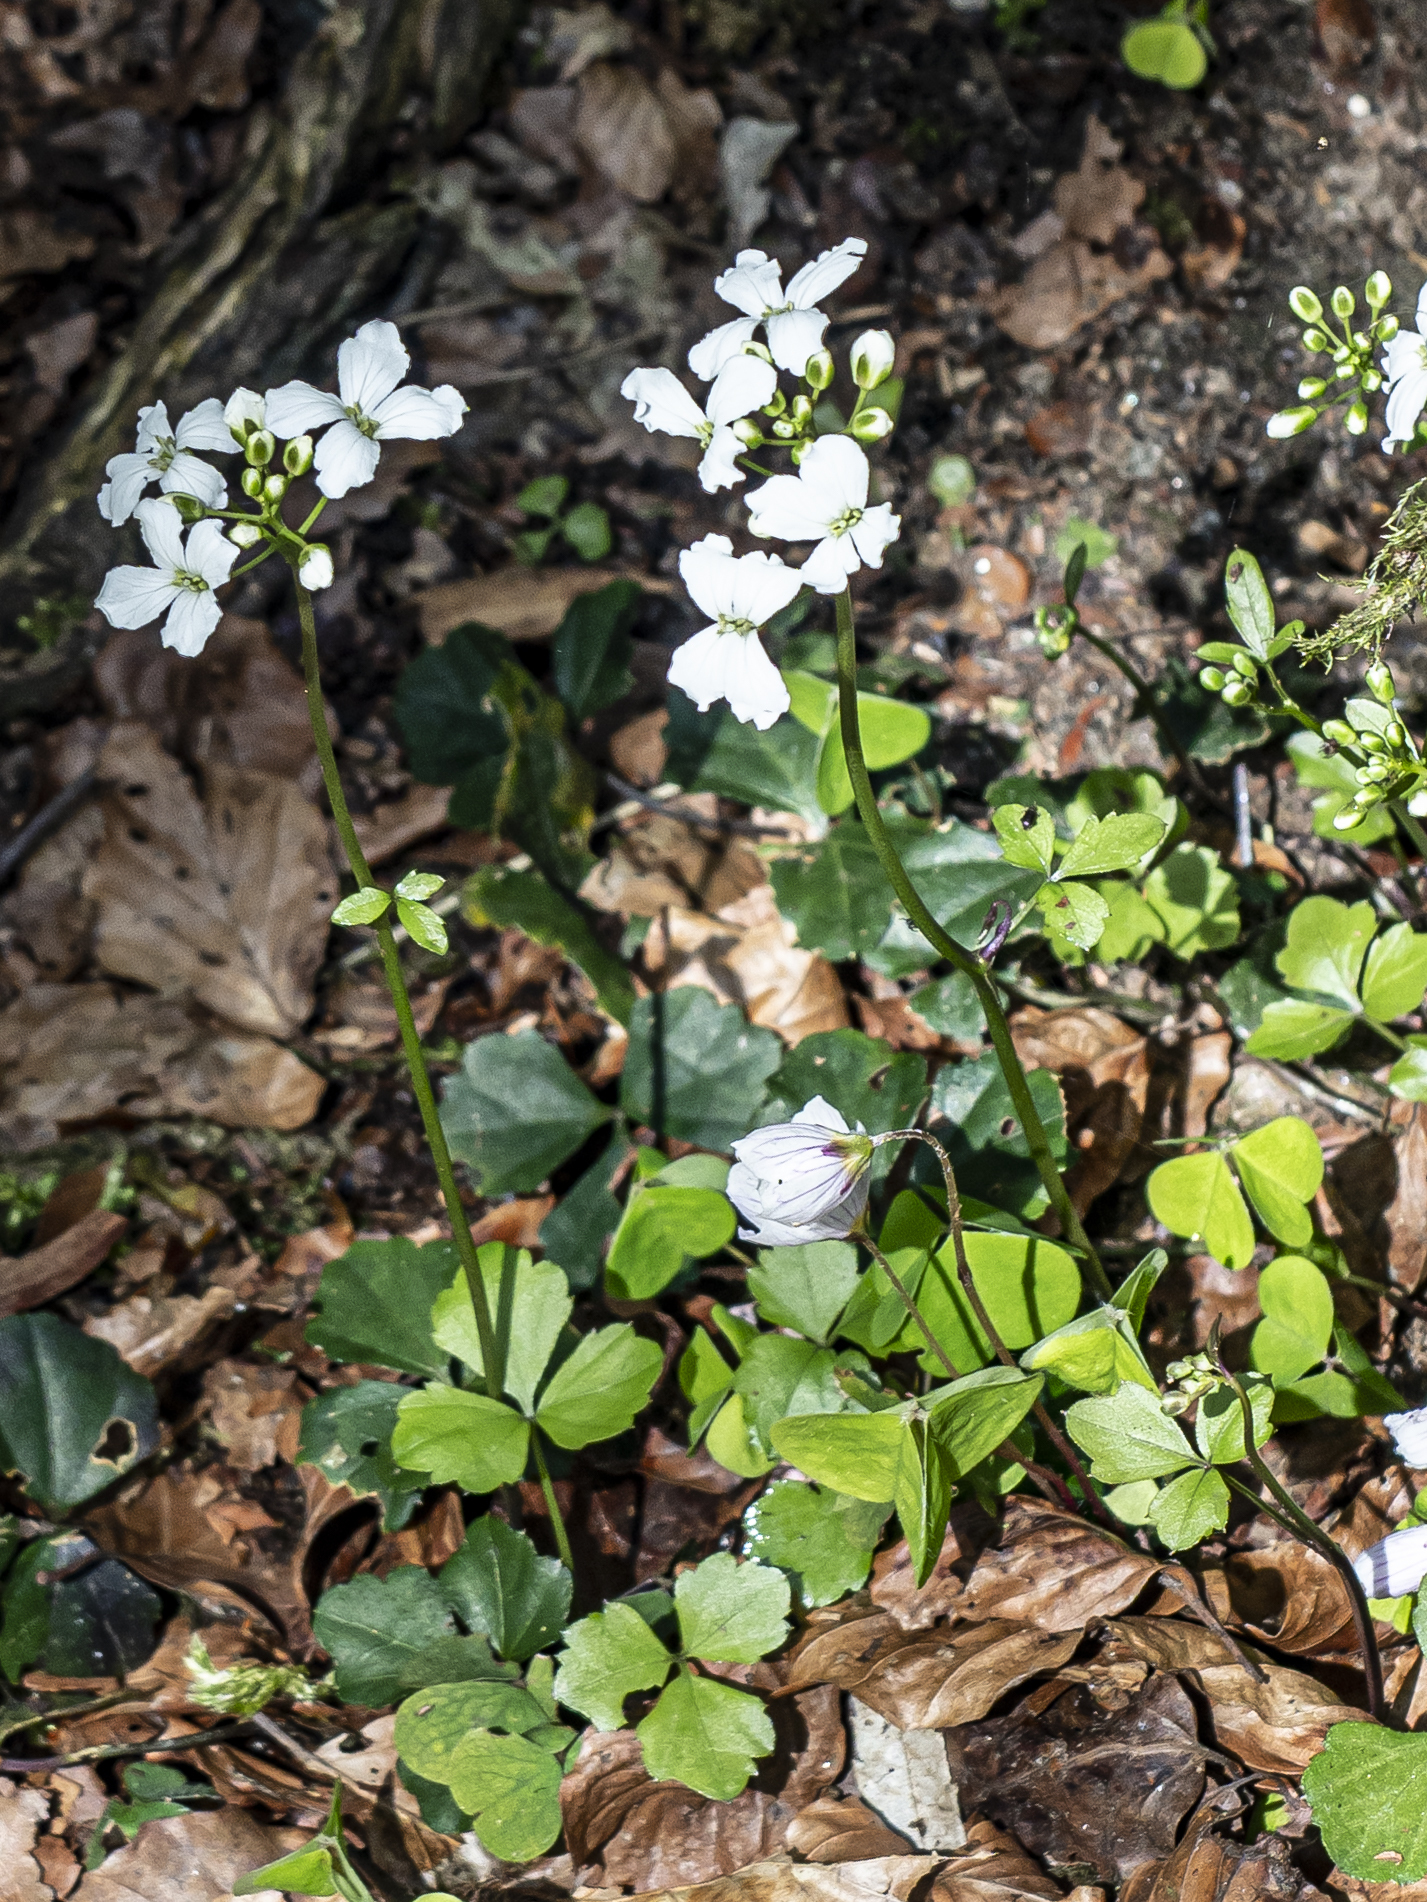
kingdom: Plantae
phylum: Tracheophyta
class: Magnoliopsida
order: Brassicales
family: Brassicaceae
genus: Cardamine
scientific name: Cardamine trifolia
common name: Trefoil cress
